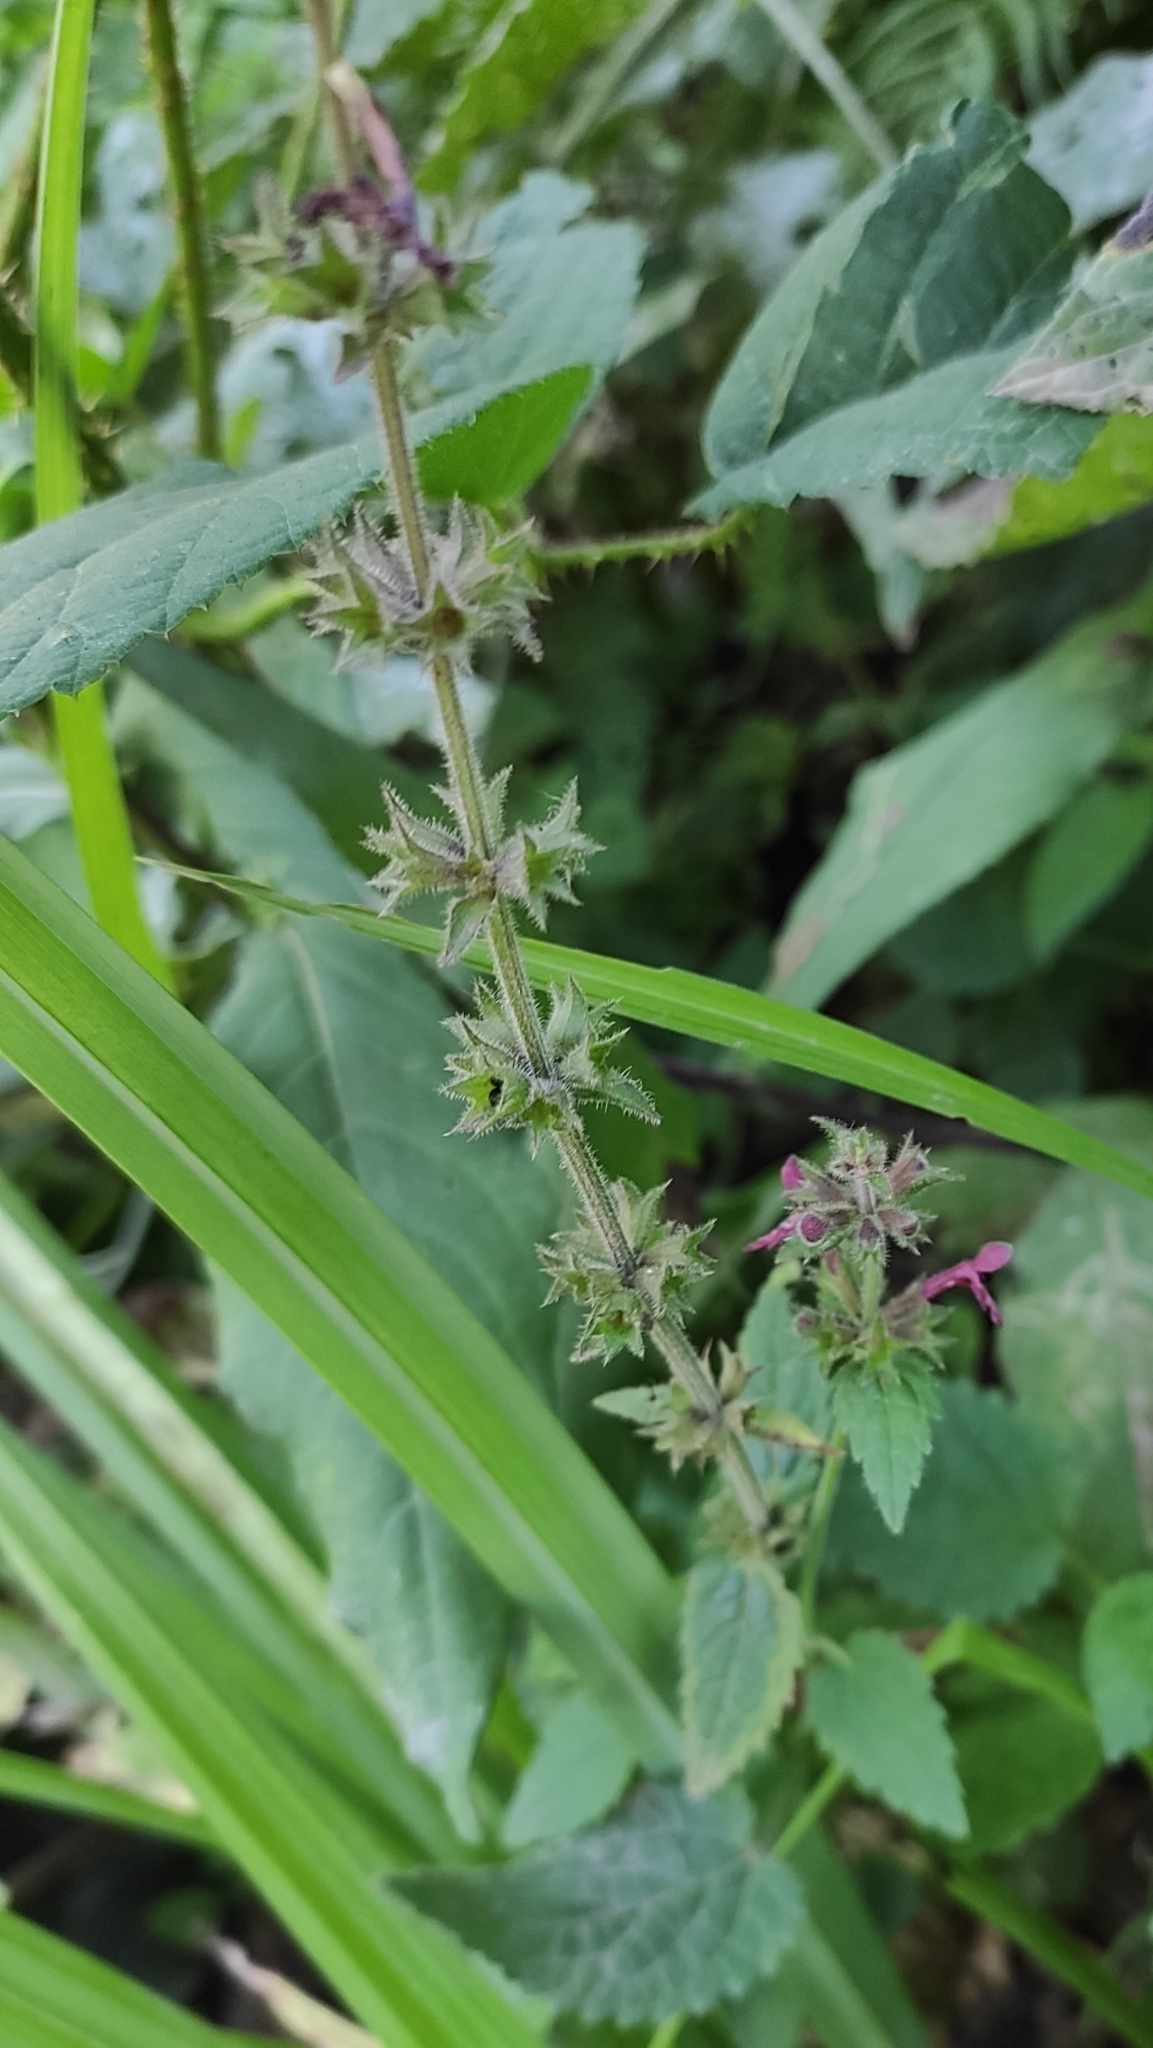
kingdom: Plantae
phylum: Tracheophyta
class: Magnoliopsida
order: Lamiales
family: Lamiaceae
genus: Stachys
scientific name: Stachys sylvatica
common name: Hedge woundwort
